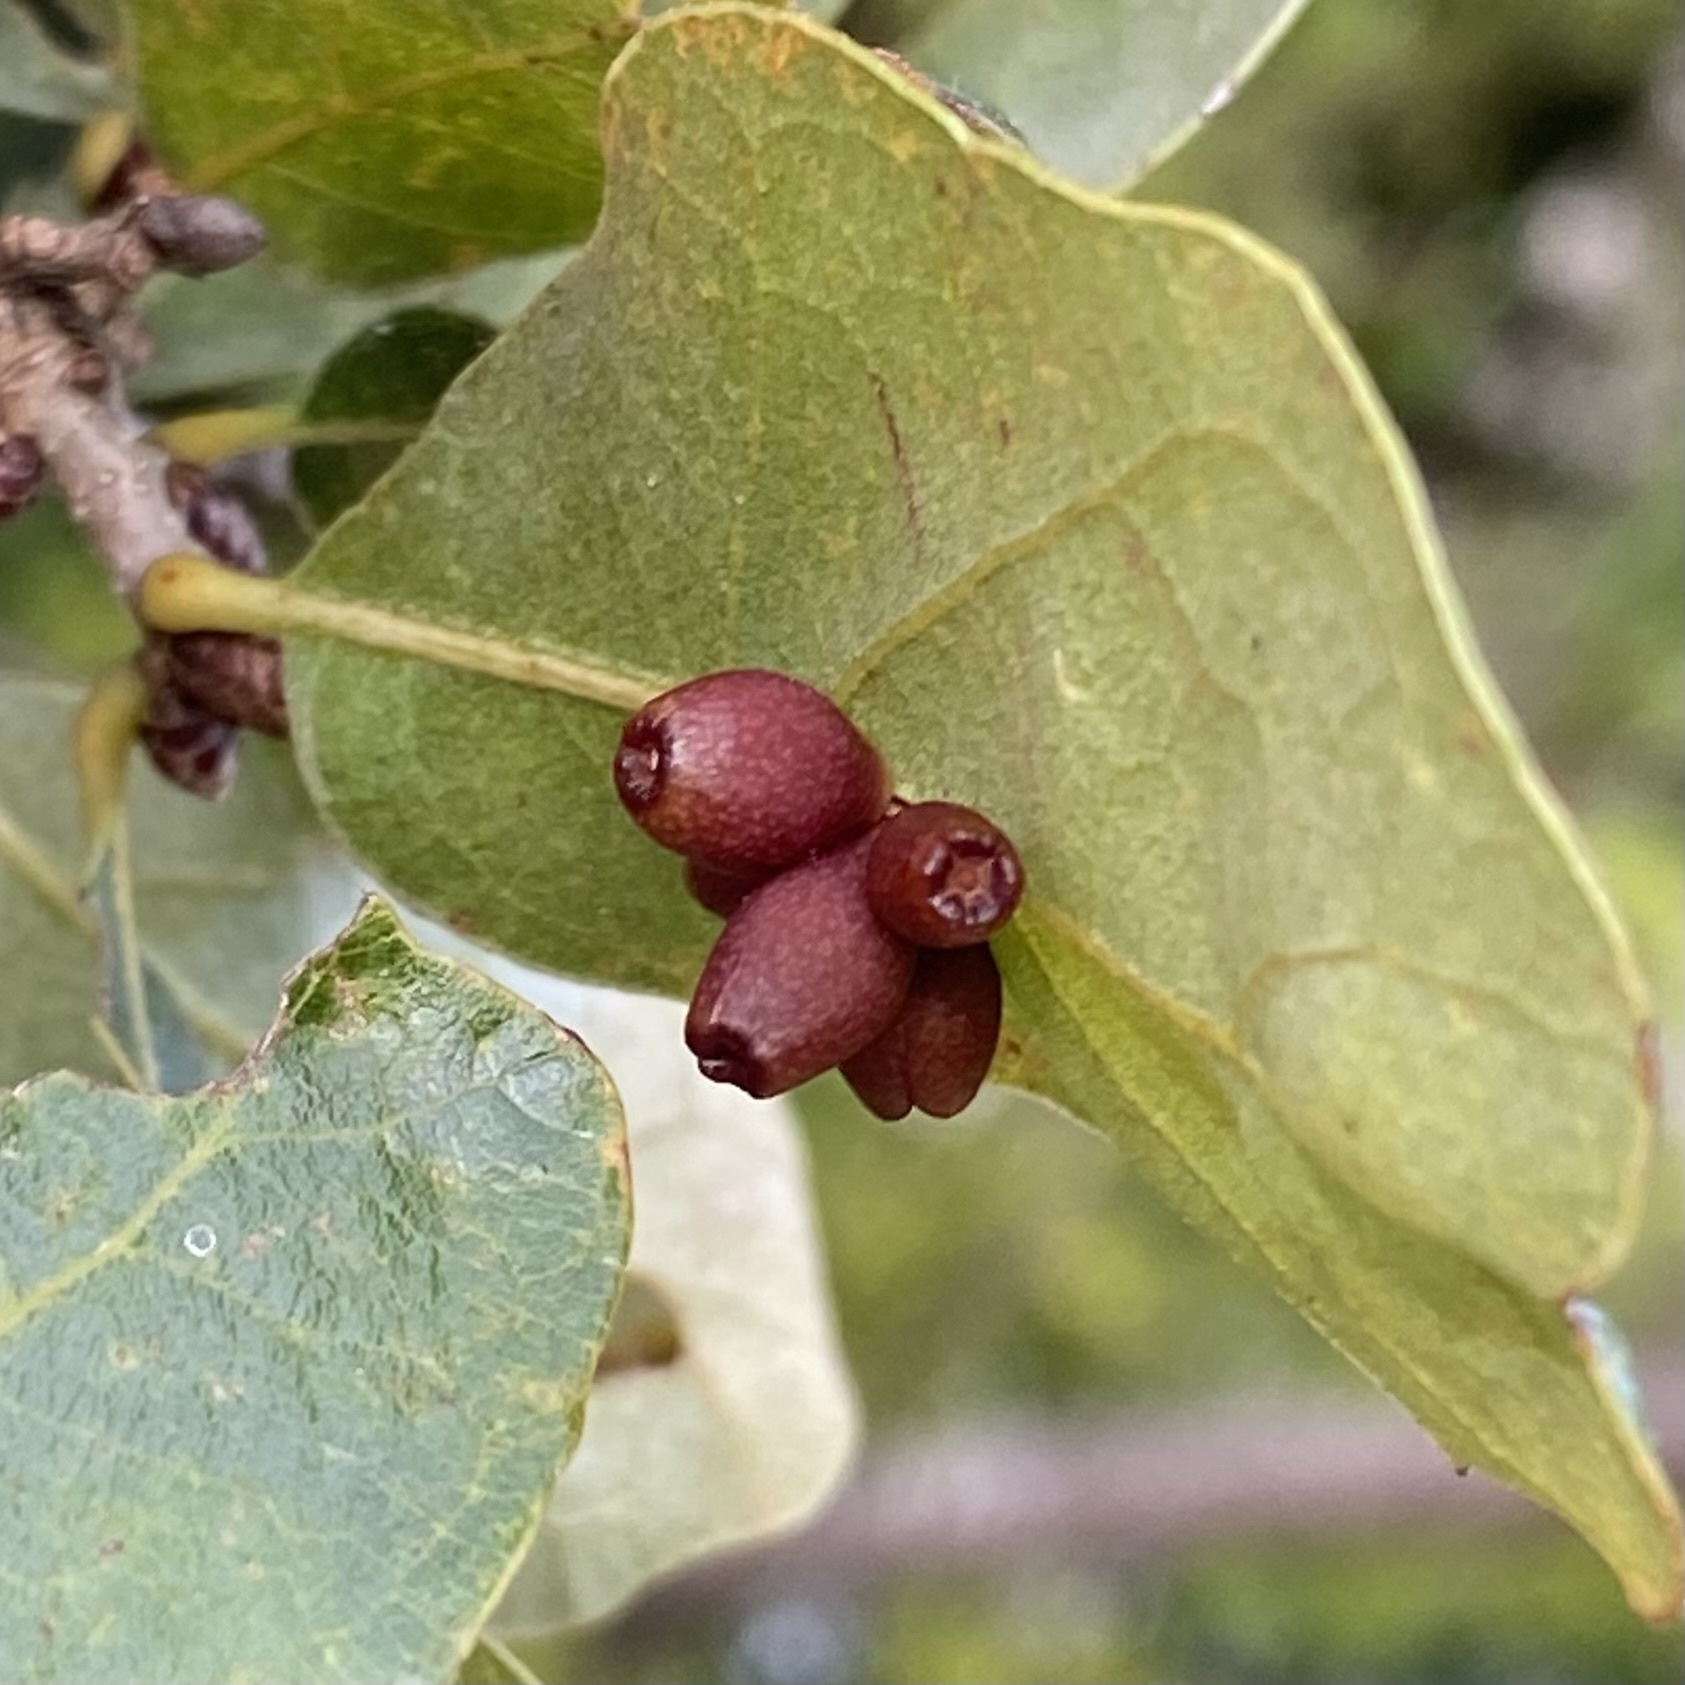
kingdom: Animalia
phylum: Arthropoda
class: Insecta
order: Hymenoptera
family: Cynipidae
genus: Andricus
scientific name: Andricus lustrans
